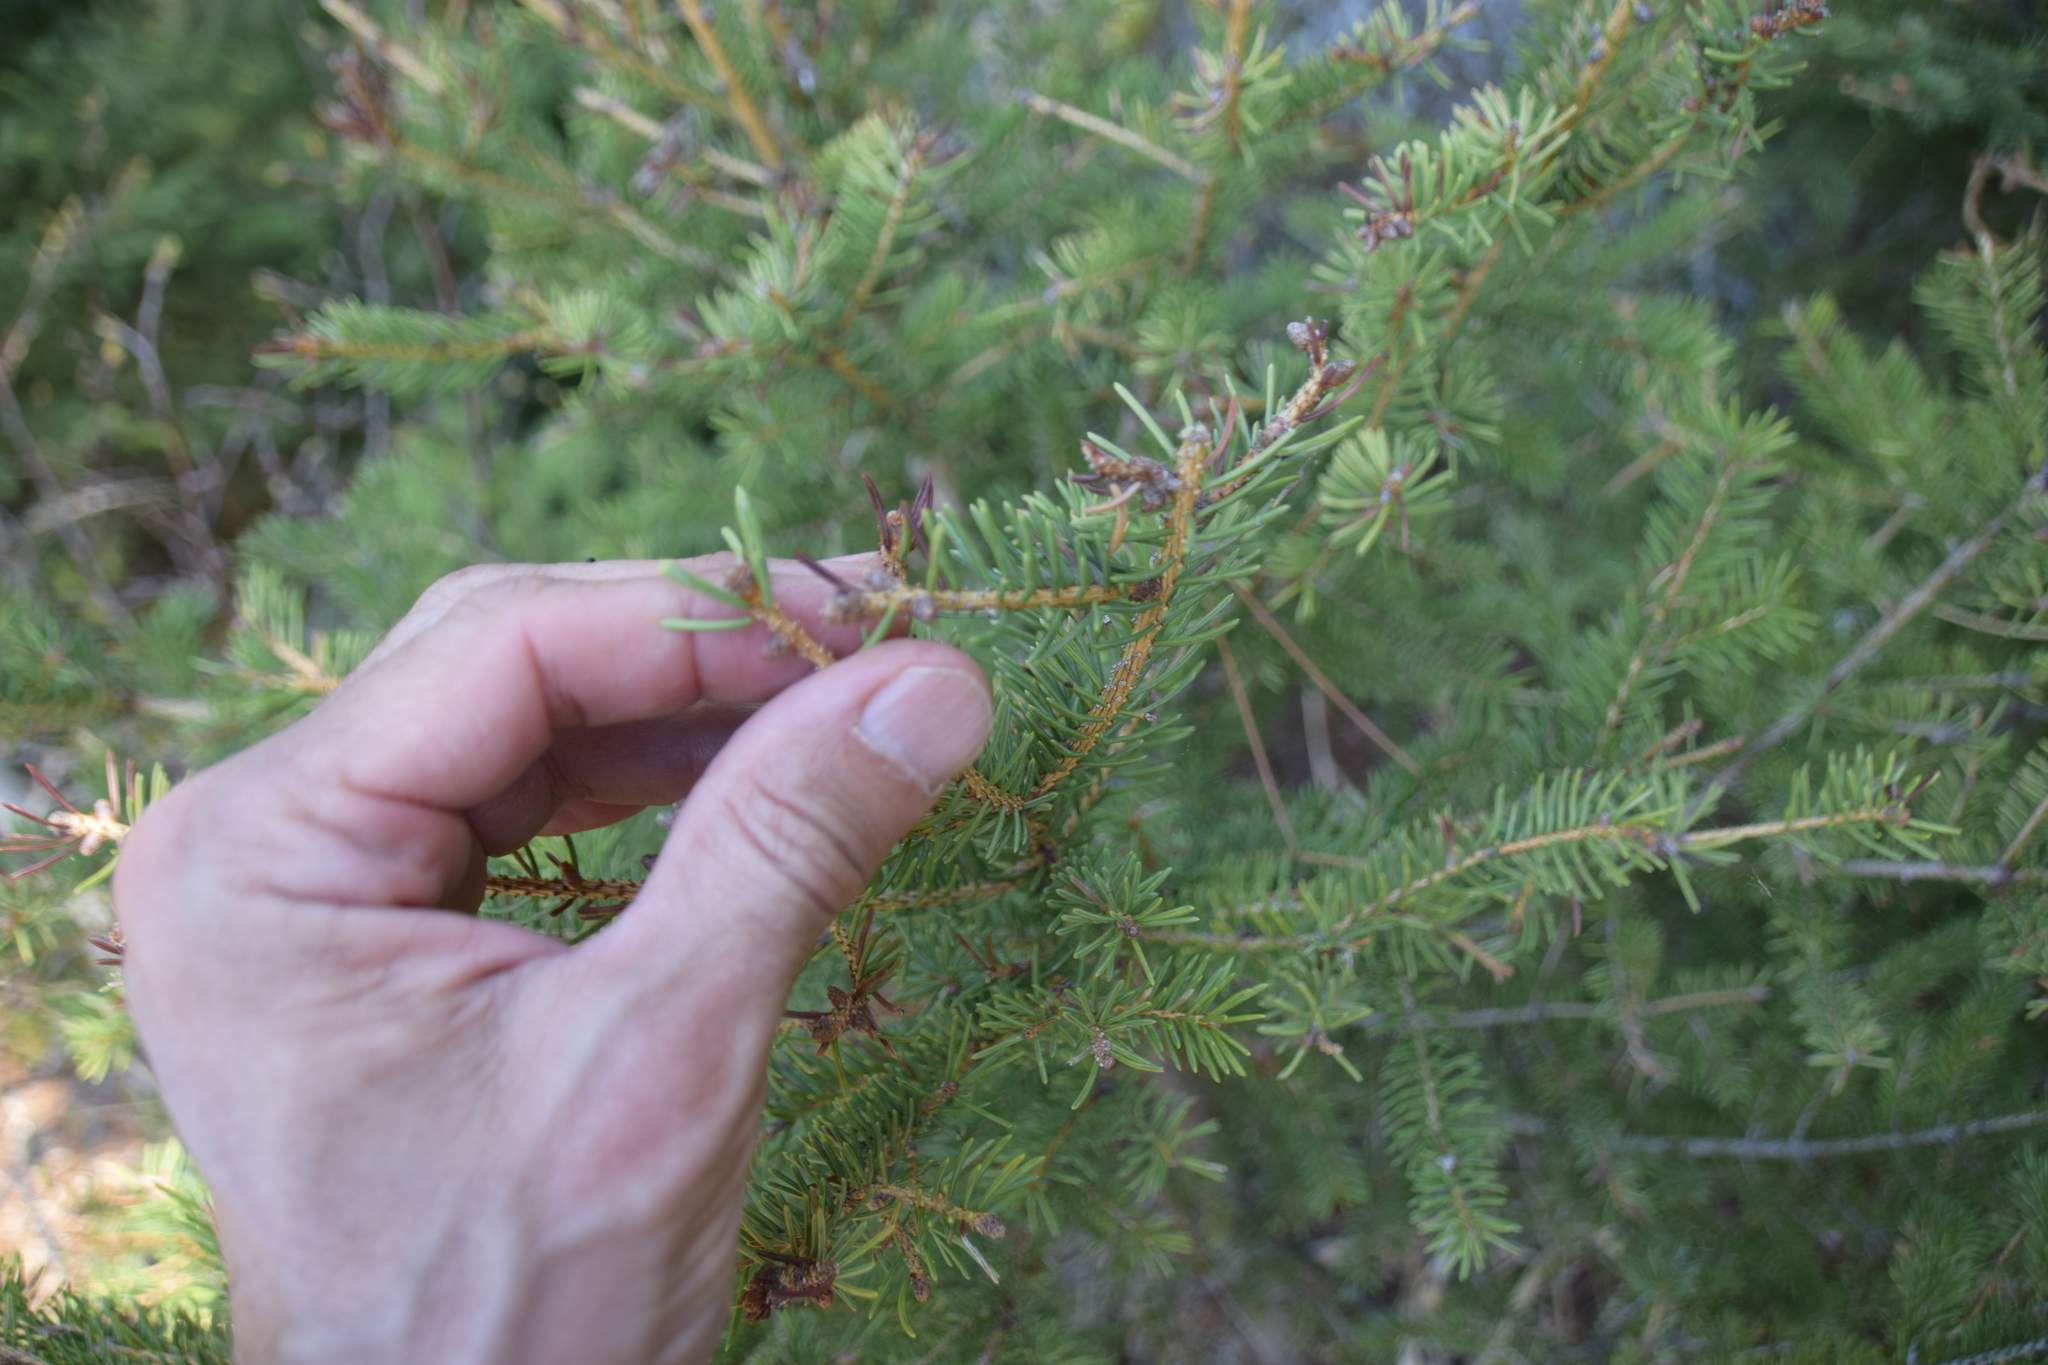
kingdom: Plantae
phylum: Tracheophyta
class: Pinopsida
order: Pinales
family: Pinaceae
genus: Picea
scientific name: Picea glauca
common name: White spruce
